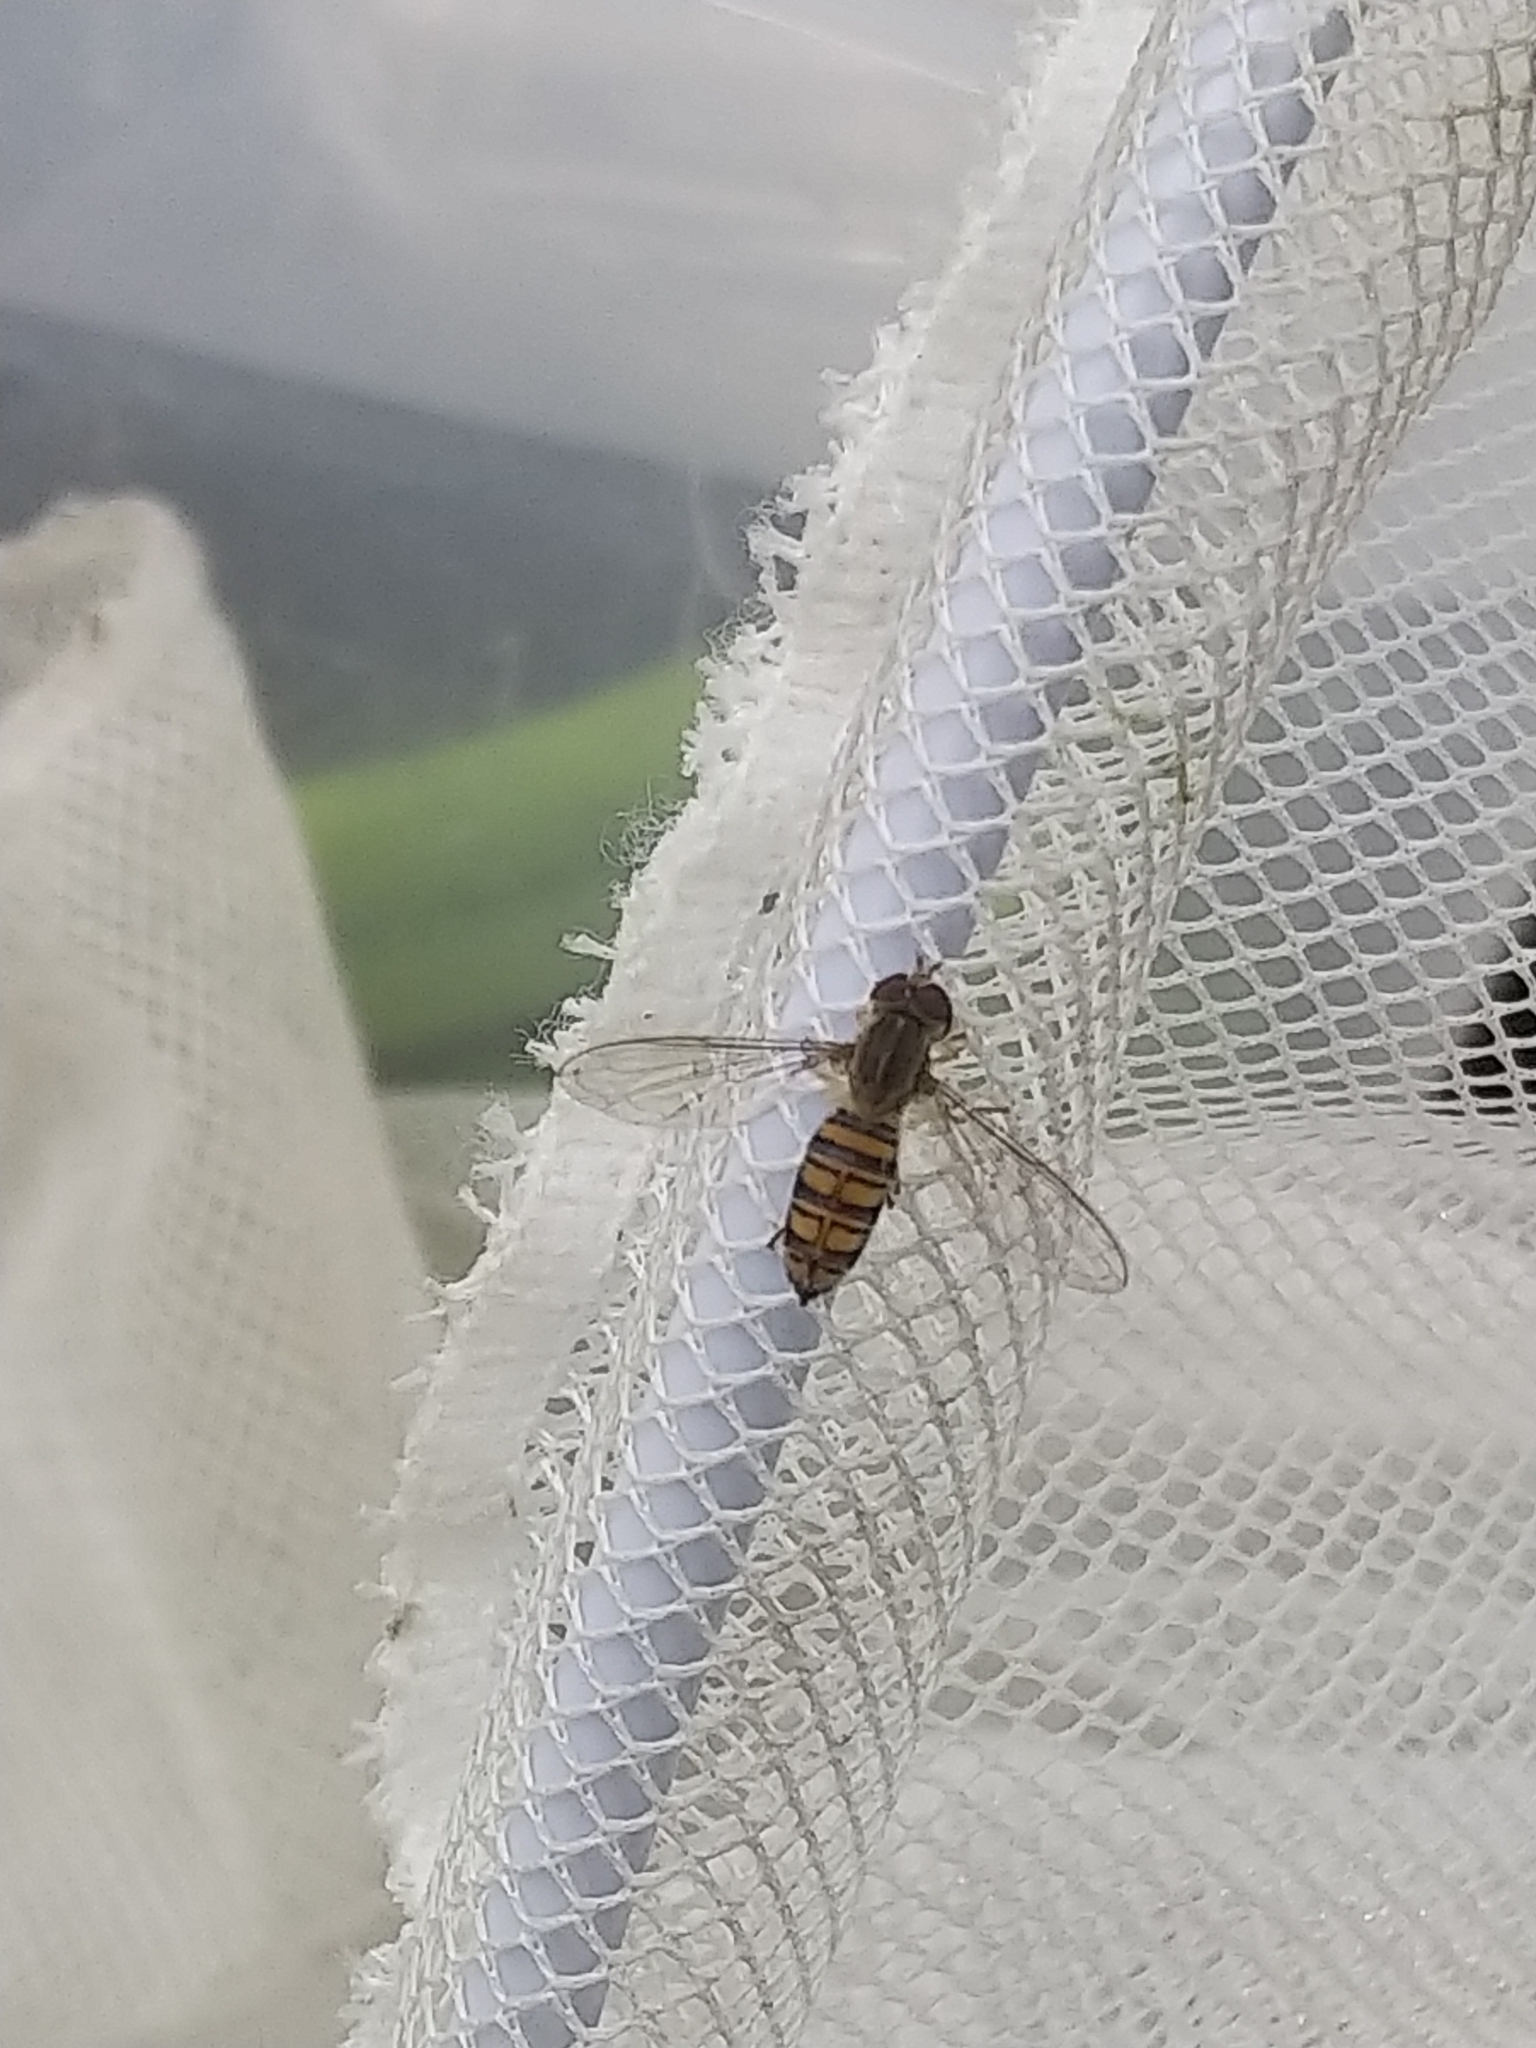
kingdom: Animalia
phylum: Arthropoda
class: Insecta
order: Diptera
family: Syrphidae
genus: Toxomerus
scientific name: Toxomerus politus
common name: Maize calligrapher
